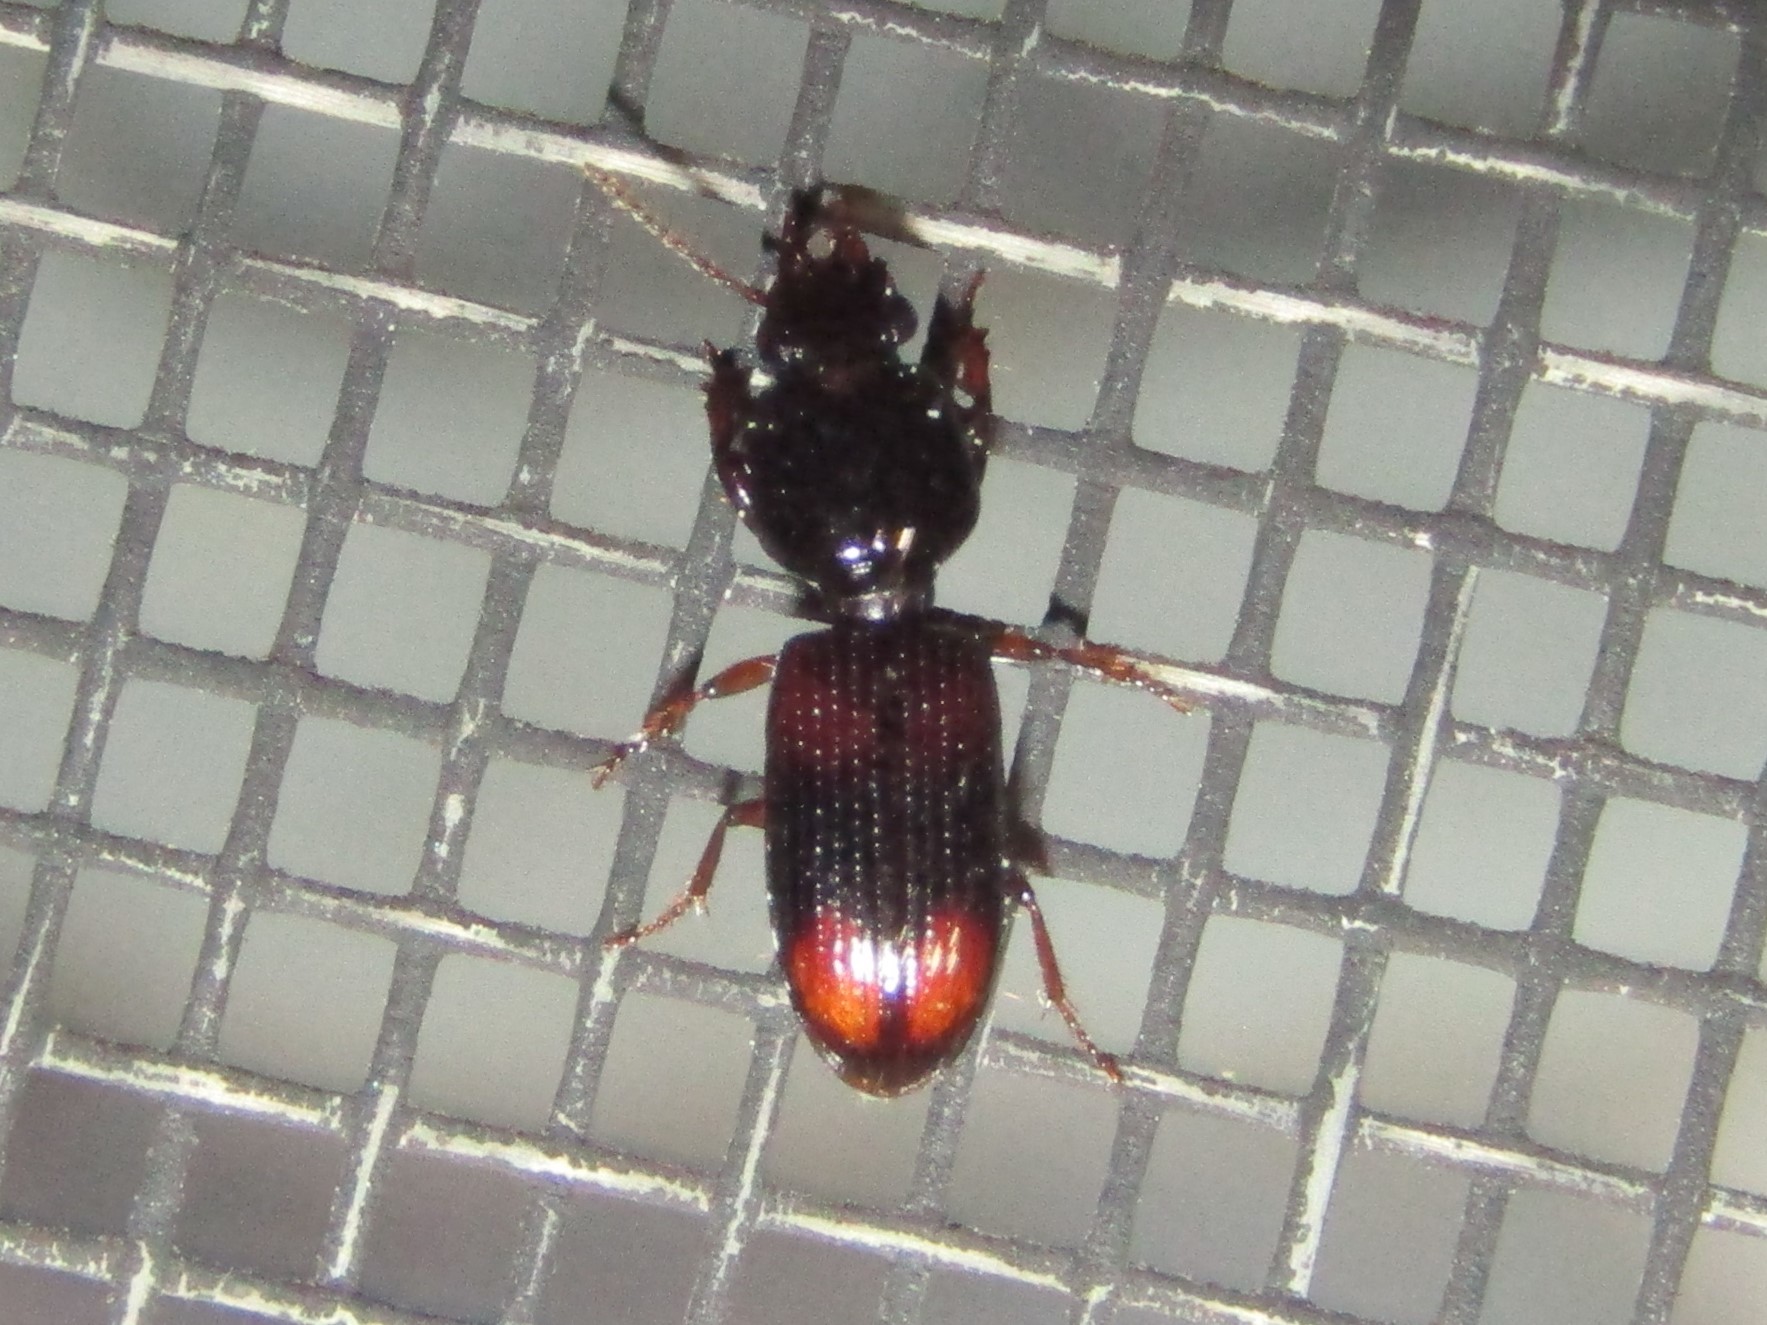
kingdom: Animalia
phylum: Arthropoda
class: Insecta
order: Coleoptera
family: Carabidae
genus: Clivina
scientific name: Clivina bipustulata
